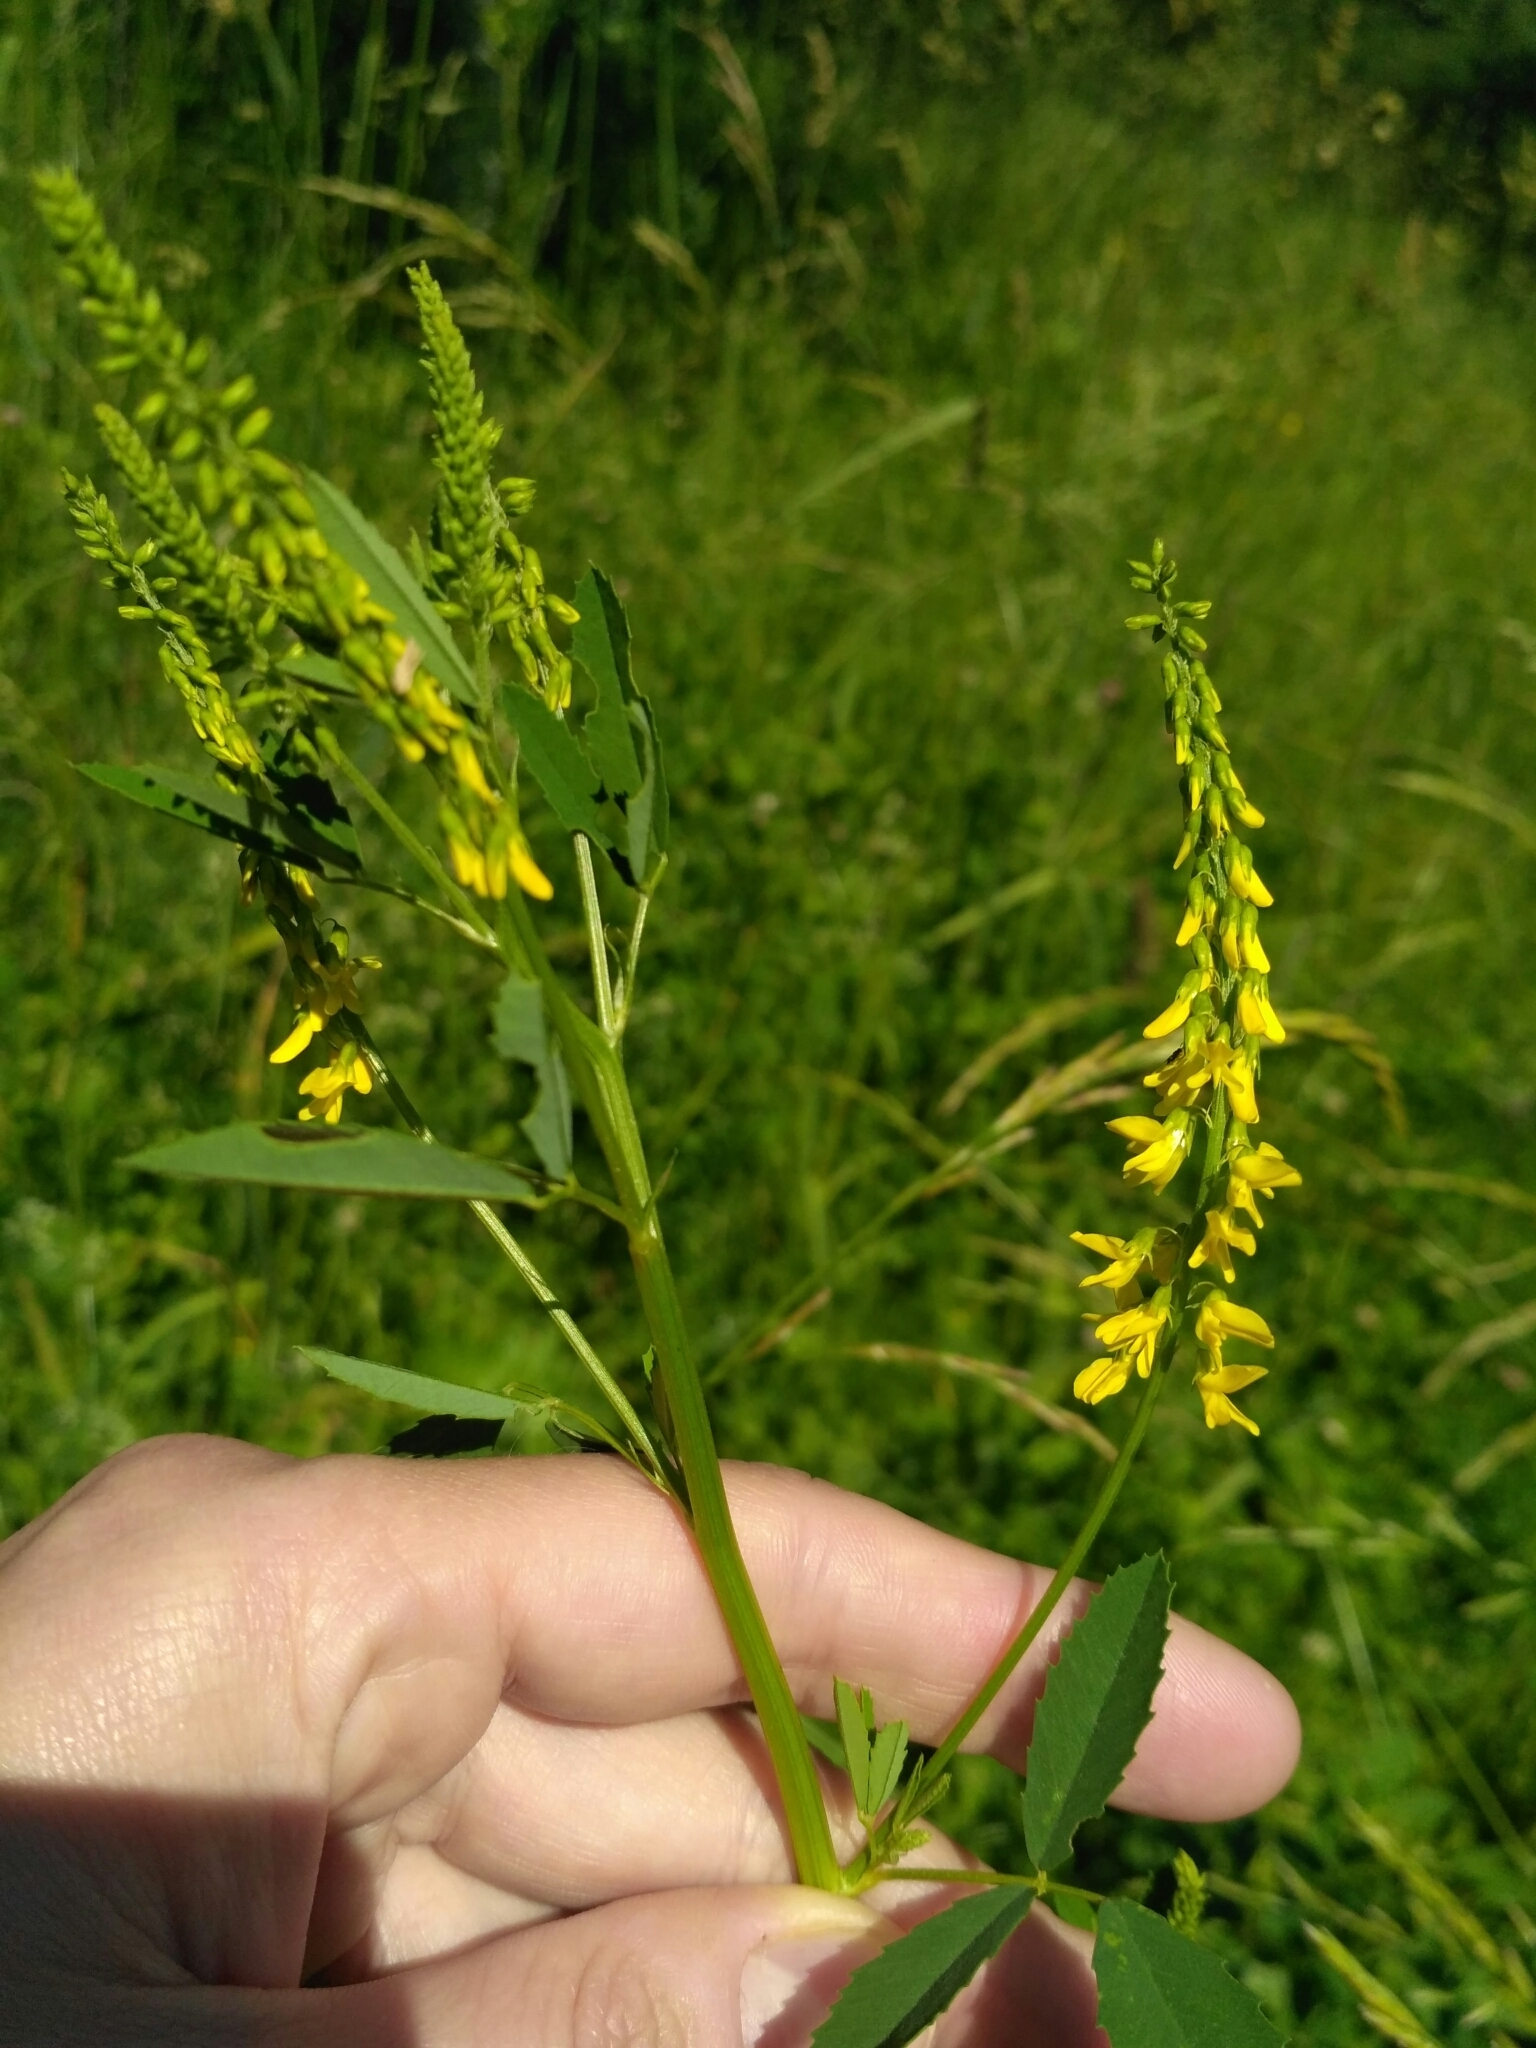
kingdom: Plantae
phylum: Tracheophyta
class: Magnoliopsida
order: Fabales
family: Fabaceae
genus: Melilotus
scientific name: Melilotus officinalis
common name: Sweetclover
